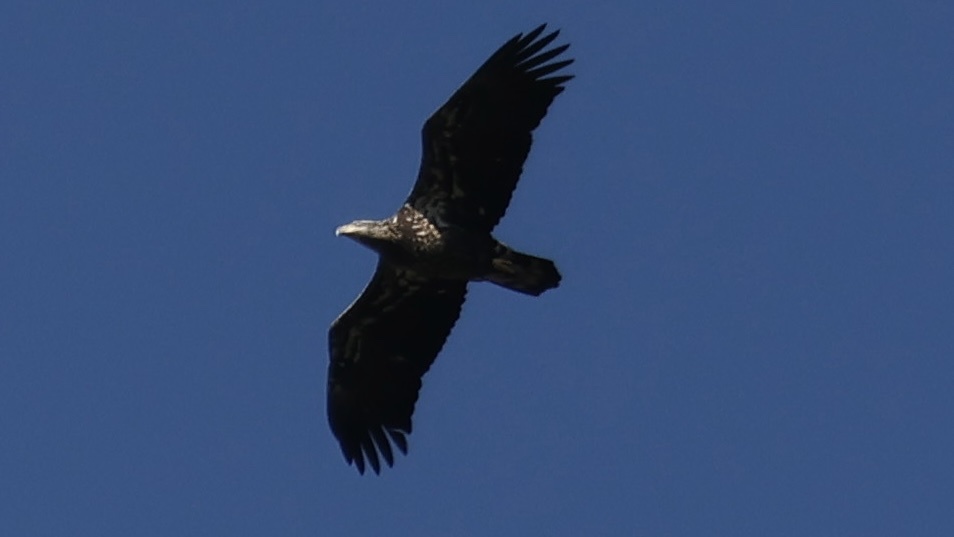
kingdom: Animalia
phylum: Chordata
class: Aves
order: Accipitriformes
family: Accipitridae
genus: Haliaeetus
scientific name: Haliaeetus leucocephalus
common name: Bald eagle
